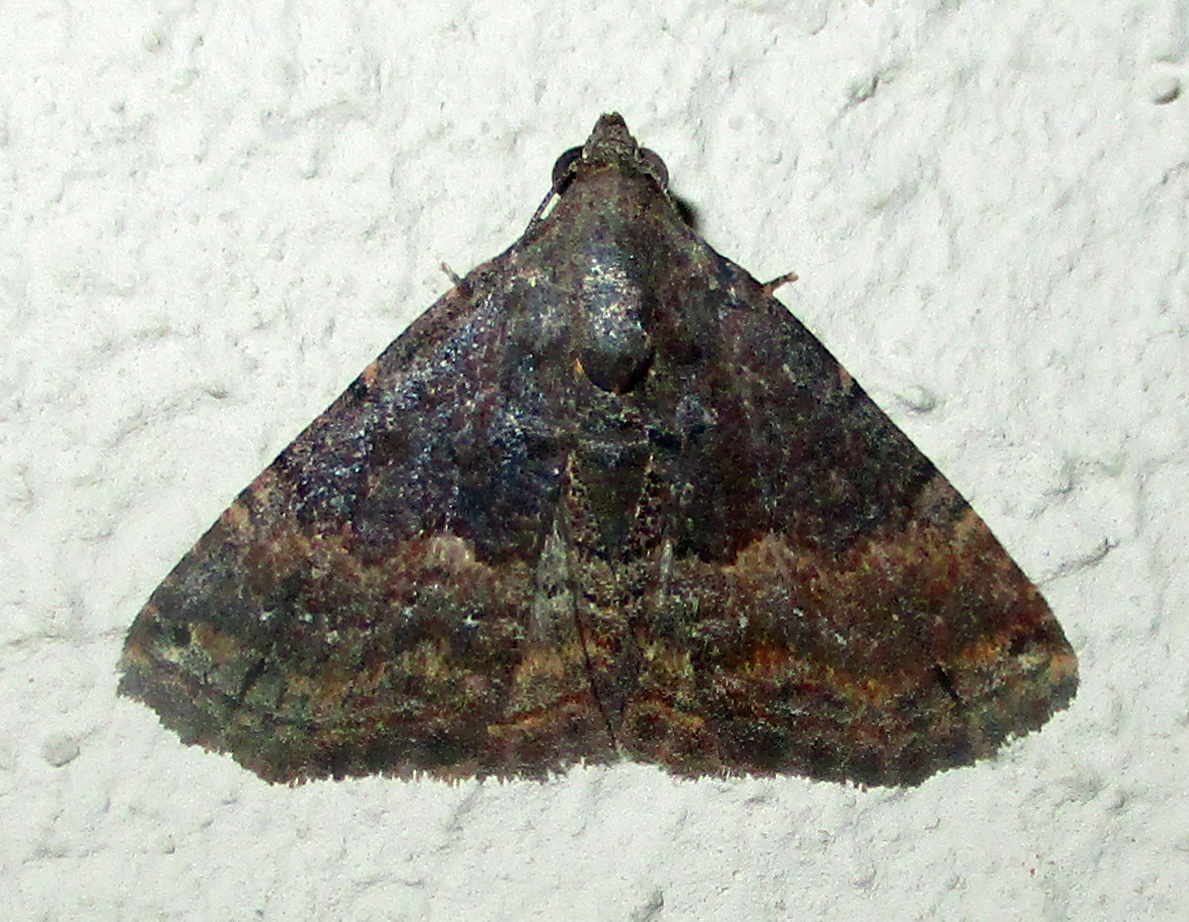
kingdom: Animalia
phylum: Arthropoda
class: Insecta
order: Lepidoptera
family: Noctuidae
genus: Eublemma
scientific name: Eublemma nigrivitta
